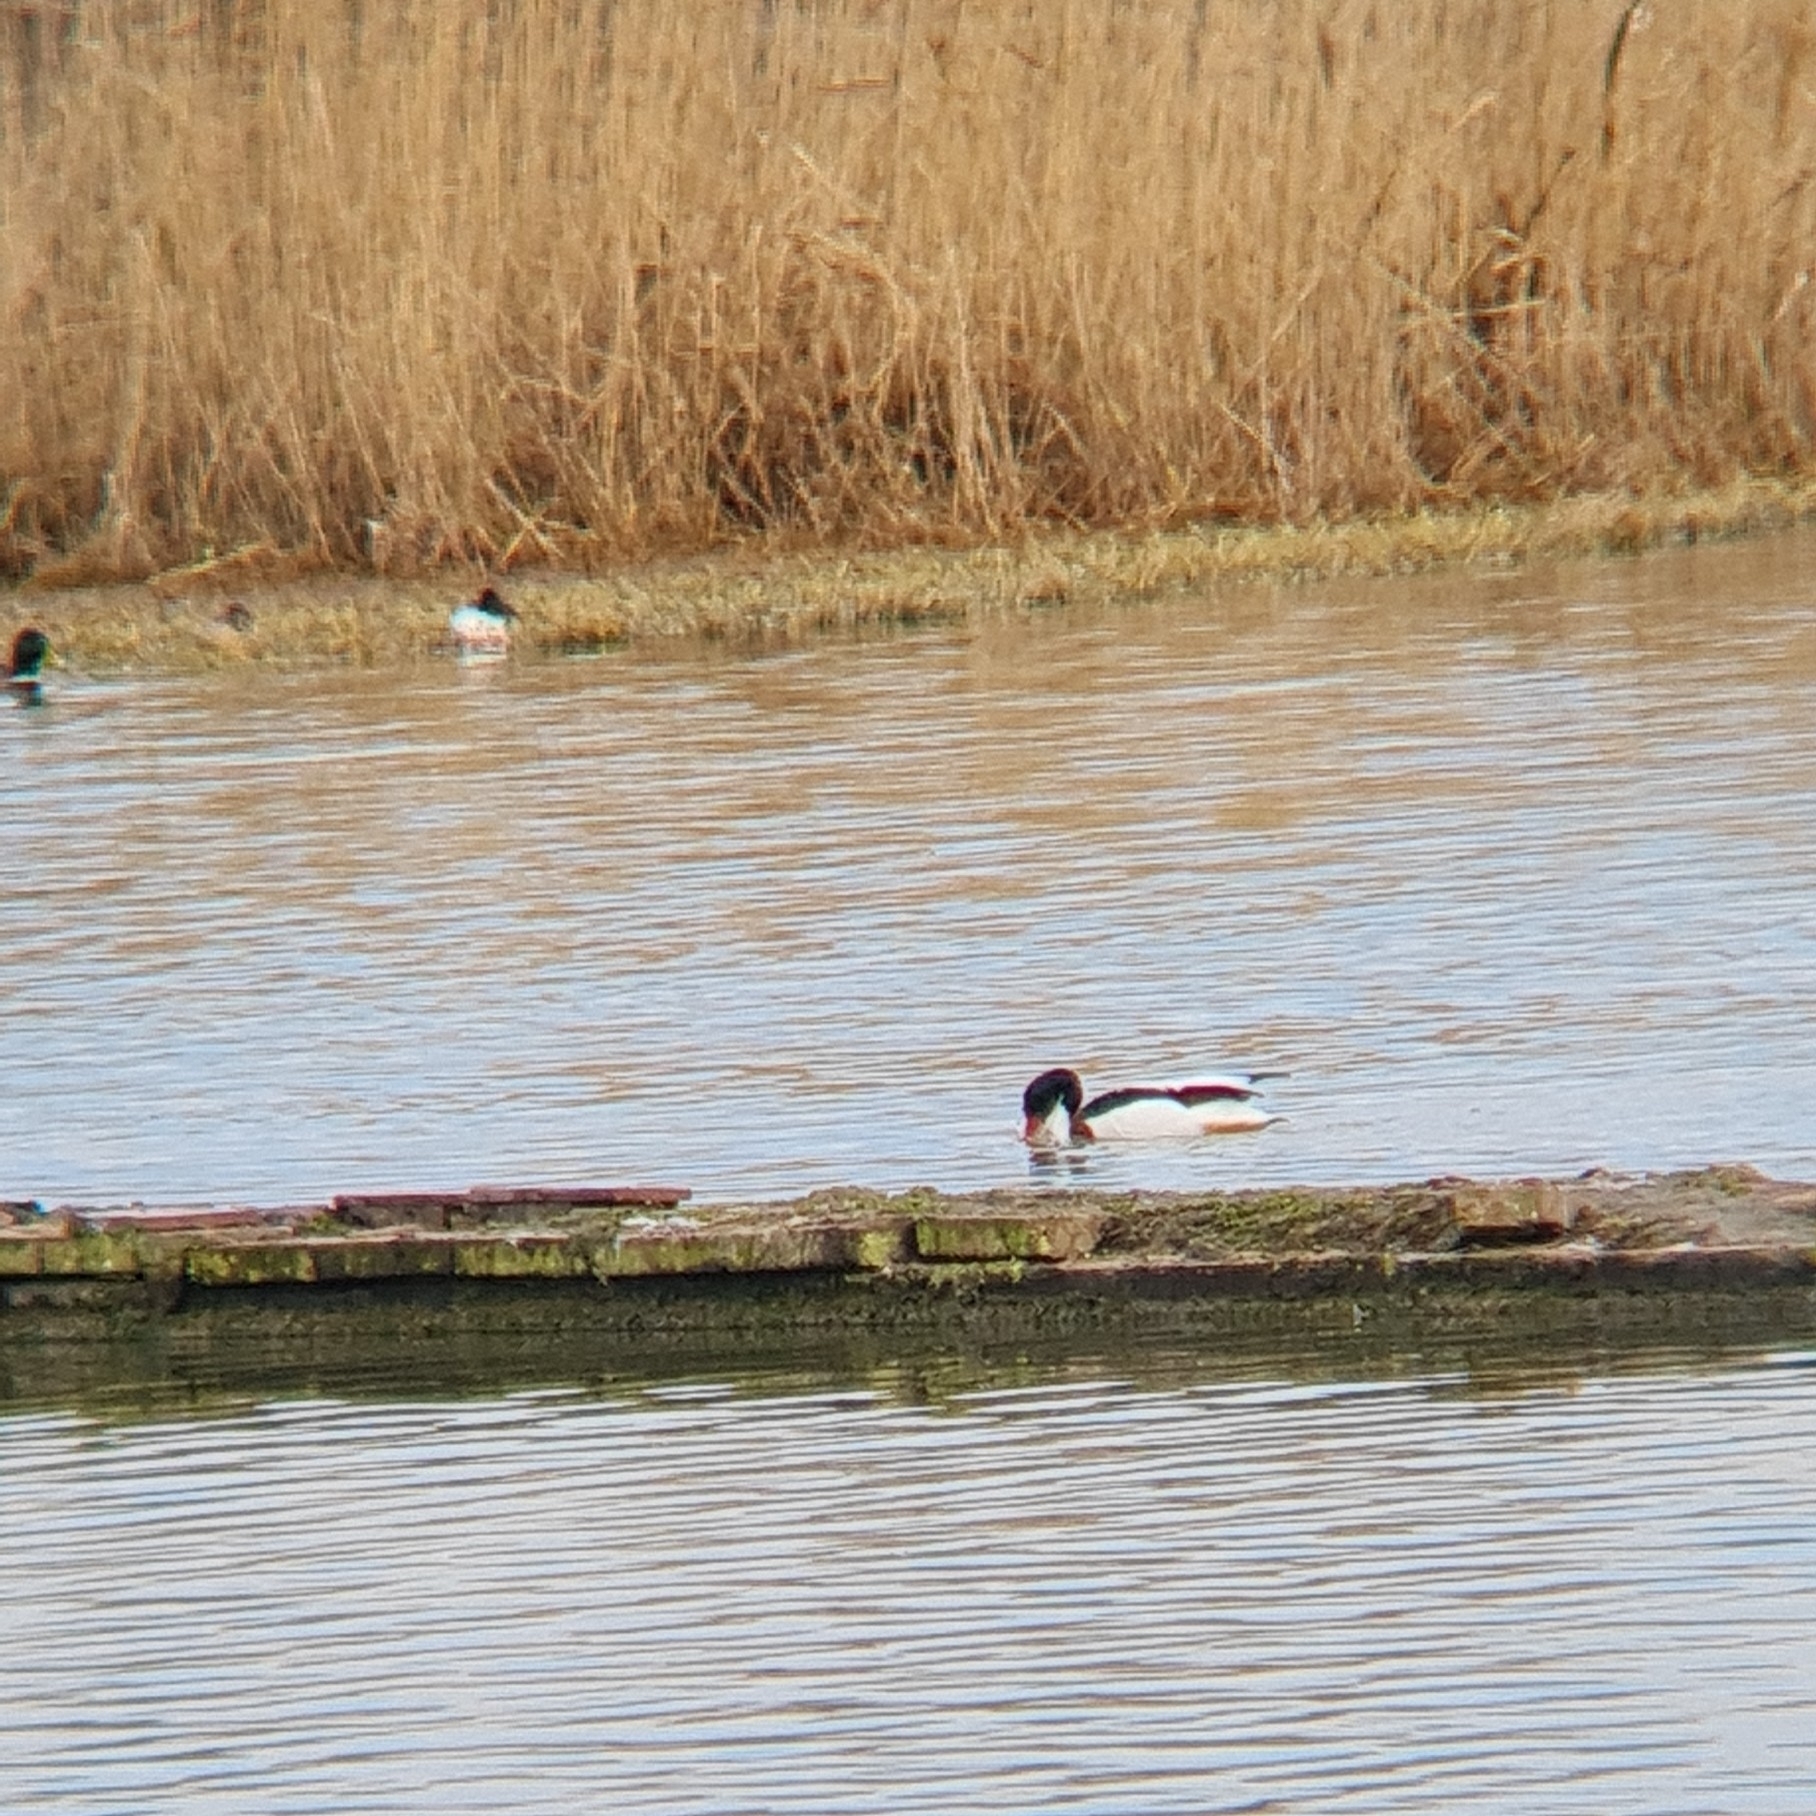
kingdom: Animalia
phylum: Chordata
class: Aves
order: Anseriformes
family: Anatidae
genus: Tadorna
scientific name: Tadorna tadorna
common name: Common shelduck
